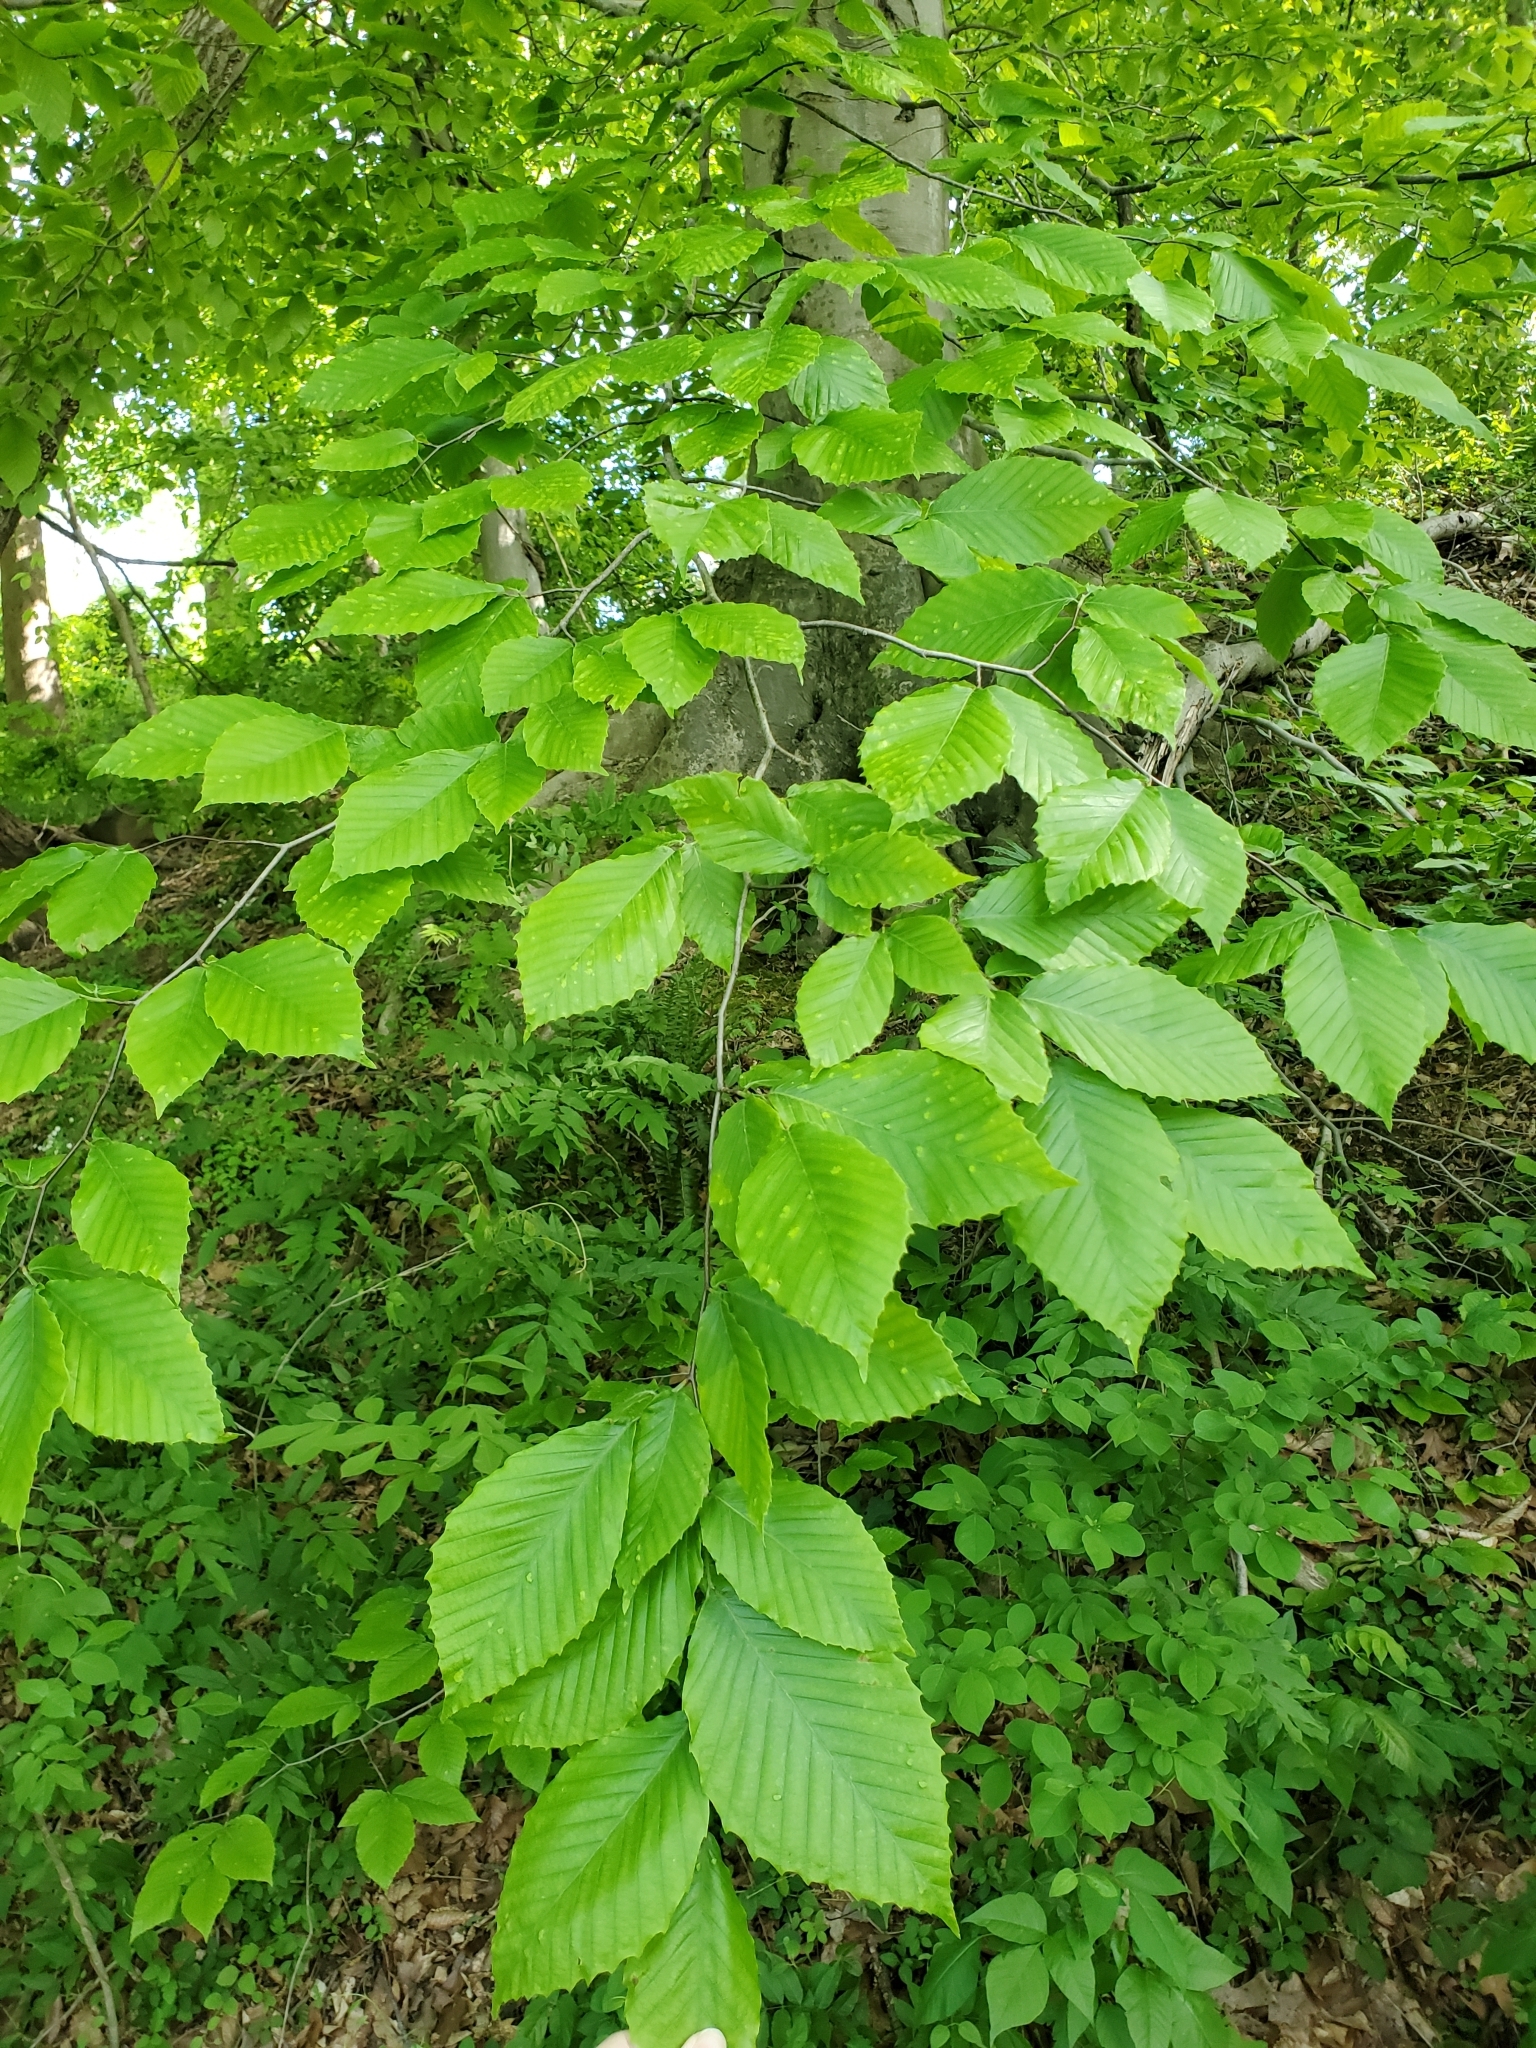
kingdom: Plantae
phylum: Tracheophyta
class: Magnoliopsida
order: Fagales
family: Fagaceae
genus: Fagus
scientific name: Fagus grandifolia
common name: American beech
